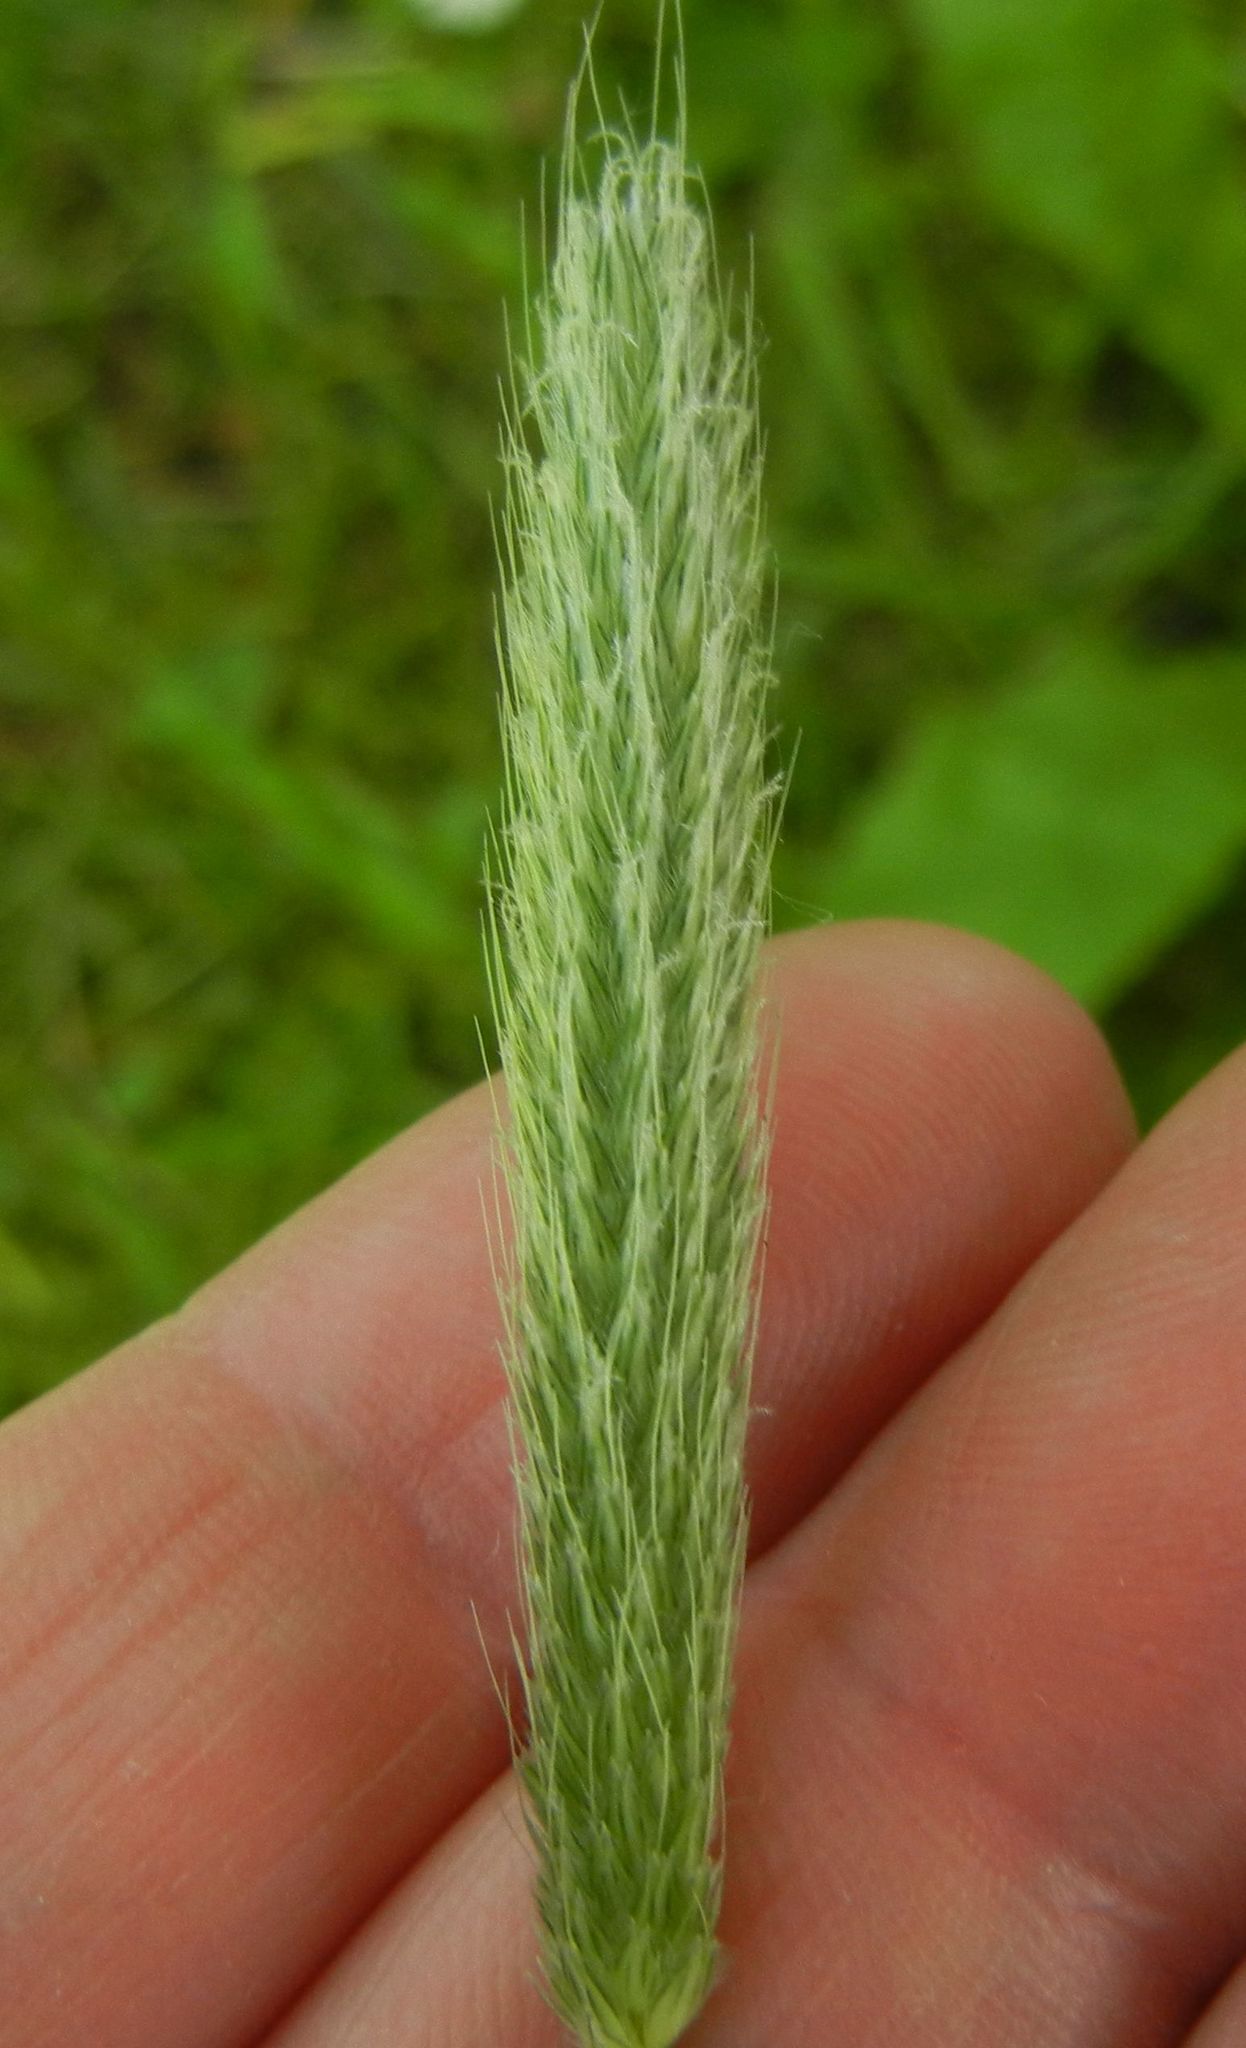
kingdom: Plantae
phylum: Tracheophyta
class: Liliopsida
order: Poales
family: Poaceae
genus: Alopecurus
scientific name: Alopecurus pratensis
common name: Meadow foxtail
